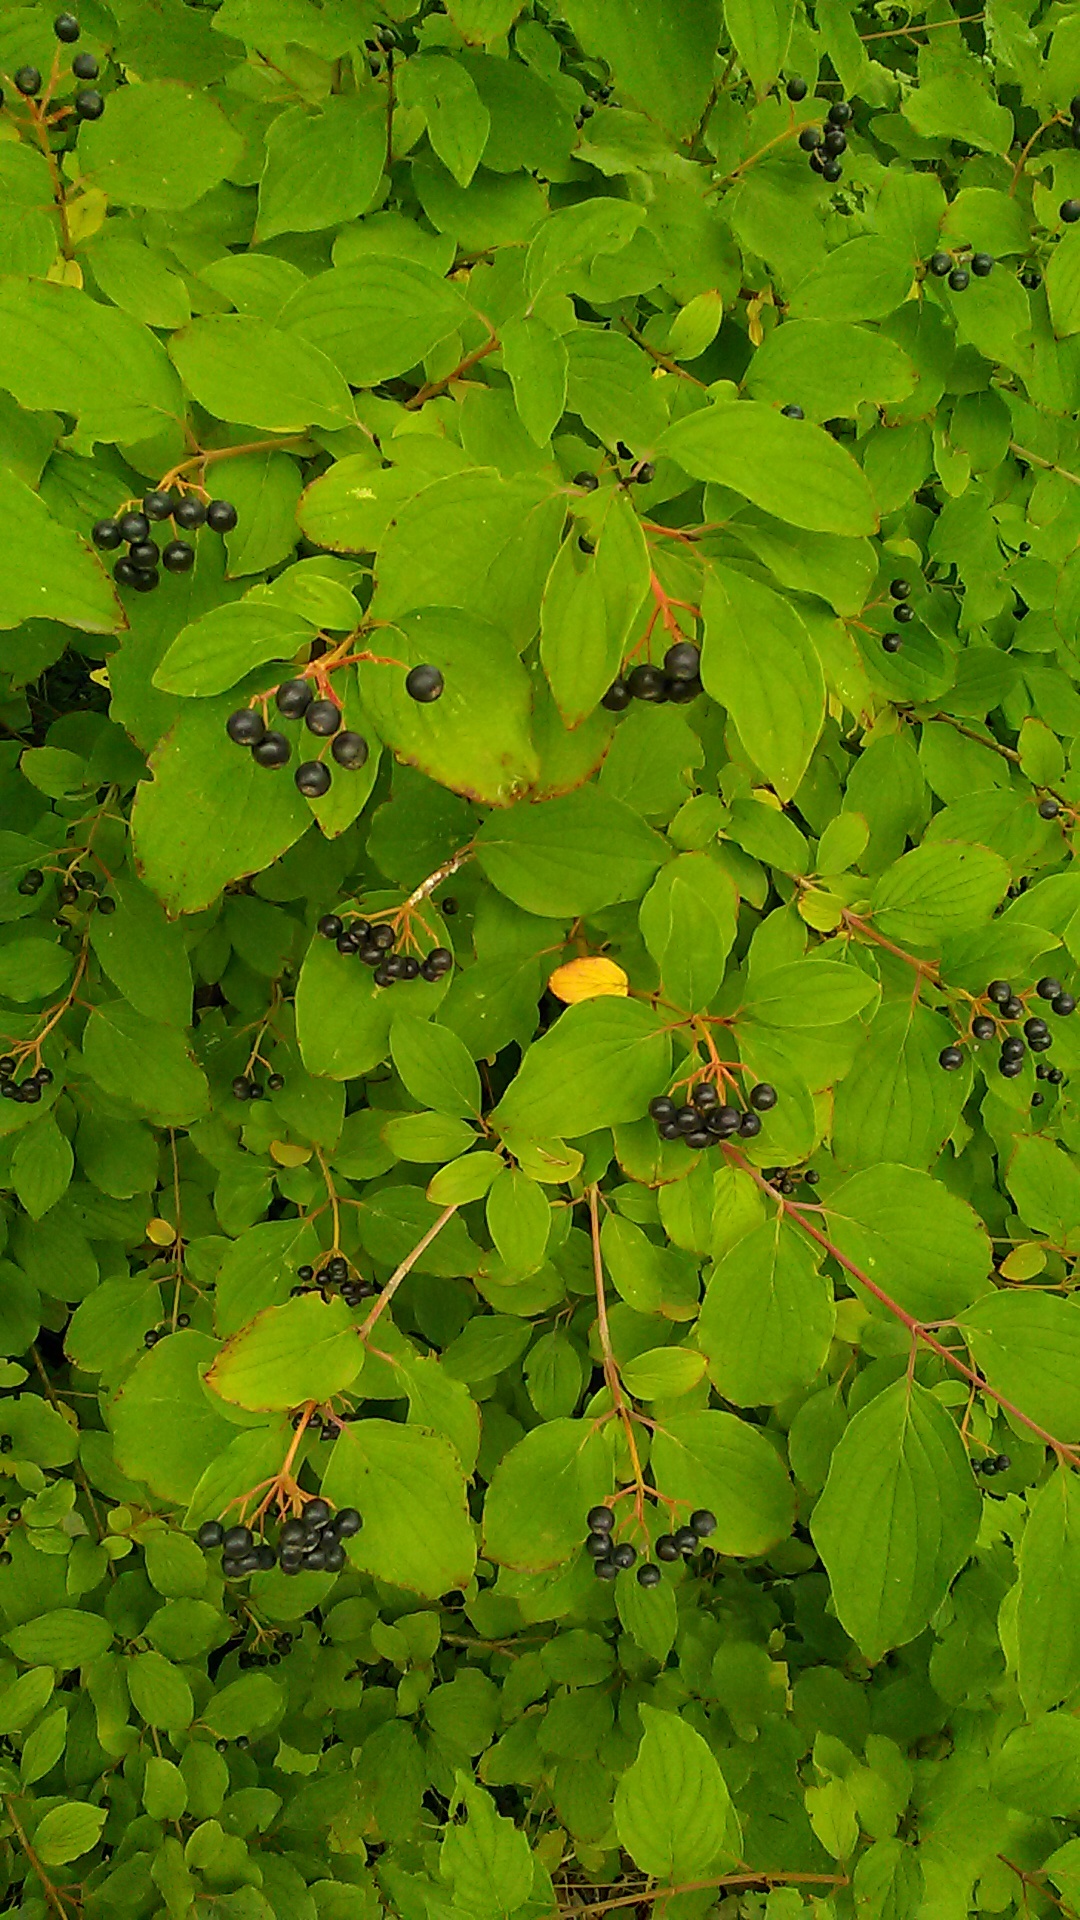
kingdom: Plantae
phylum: Tracheophyta
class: Magnoliopsida
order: Cornales
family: Cornaceae
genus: Cornus
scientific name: Cornus sanguinea
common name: Dogwood
